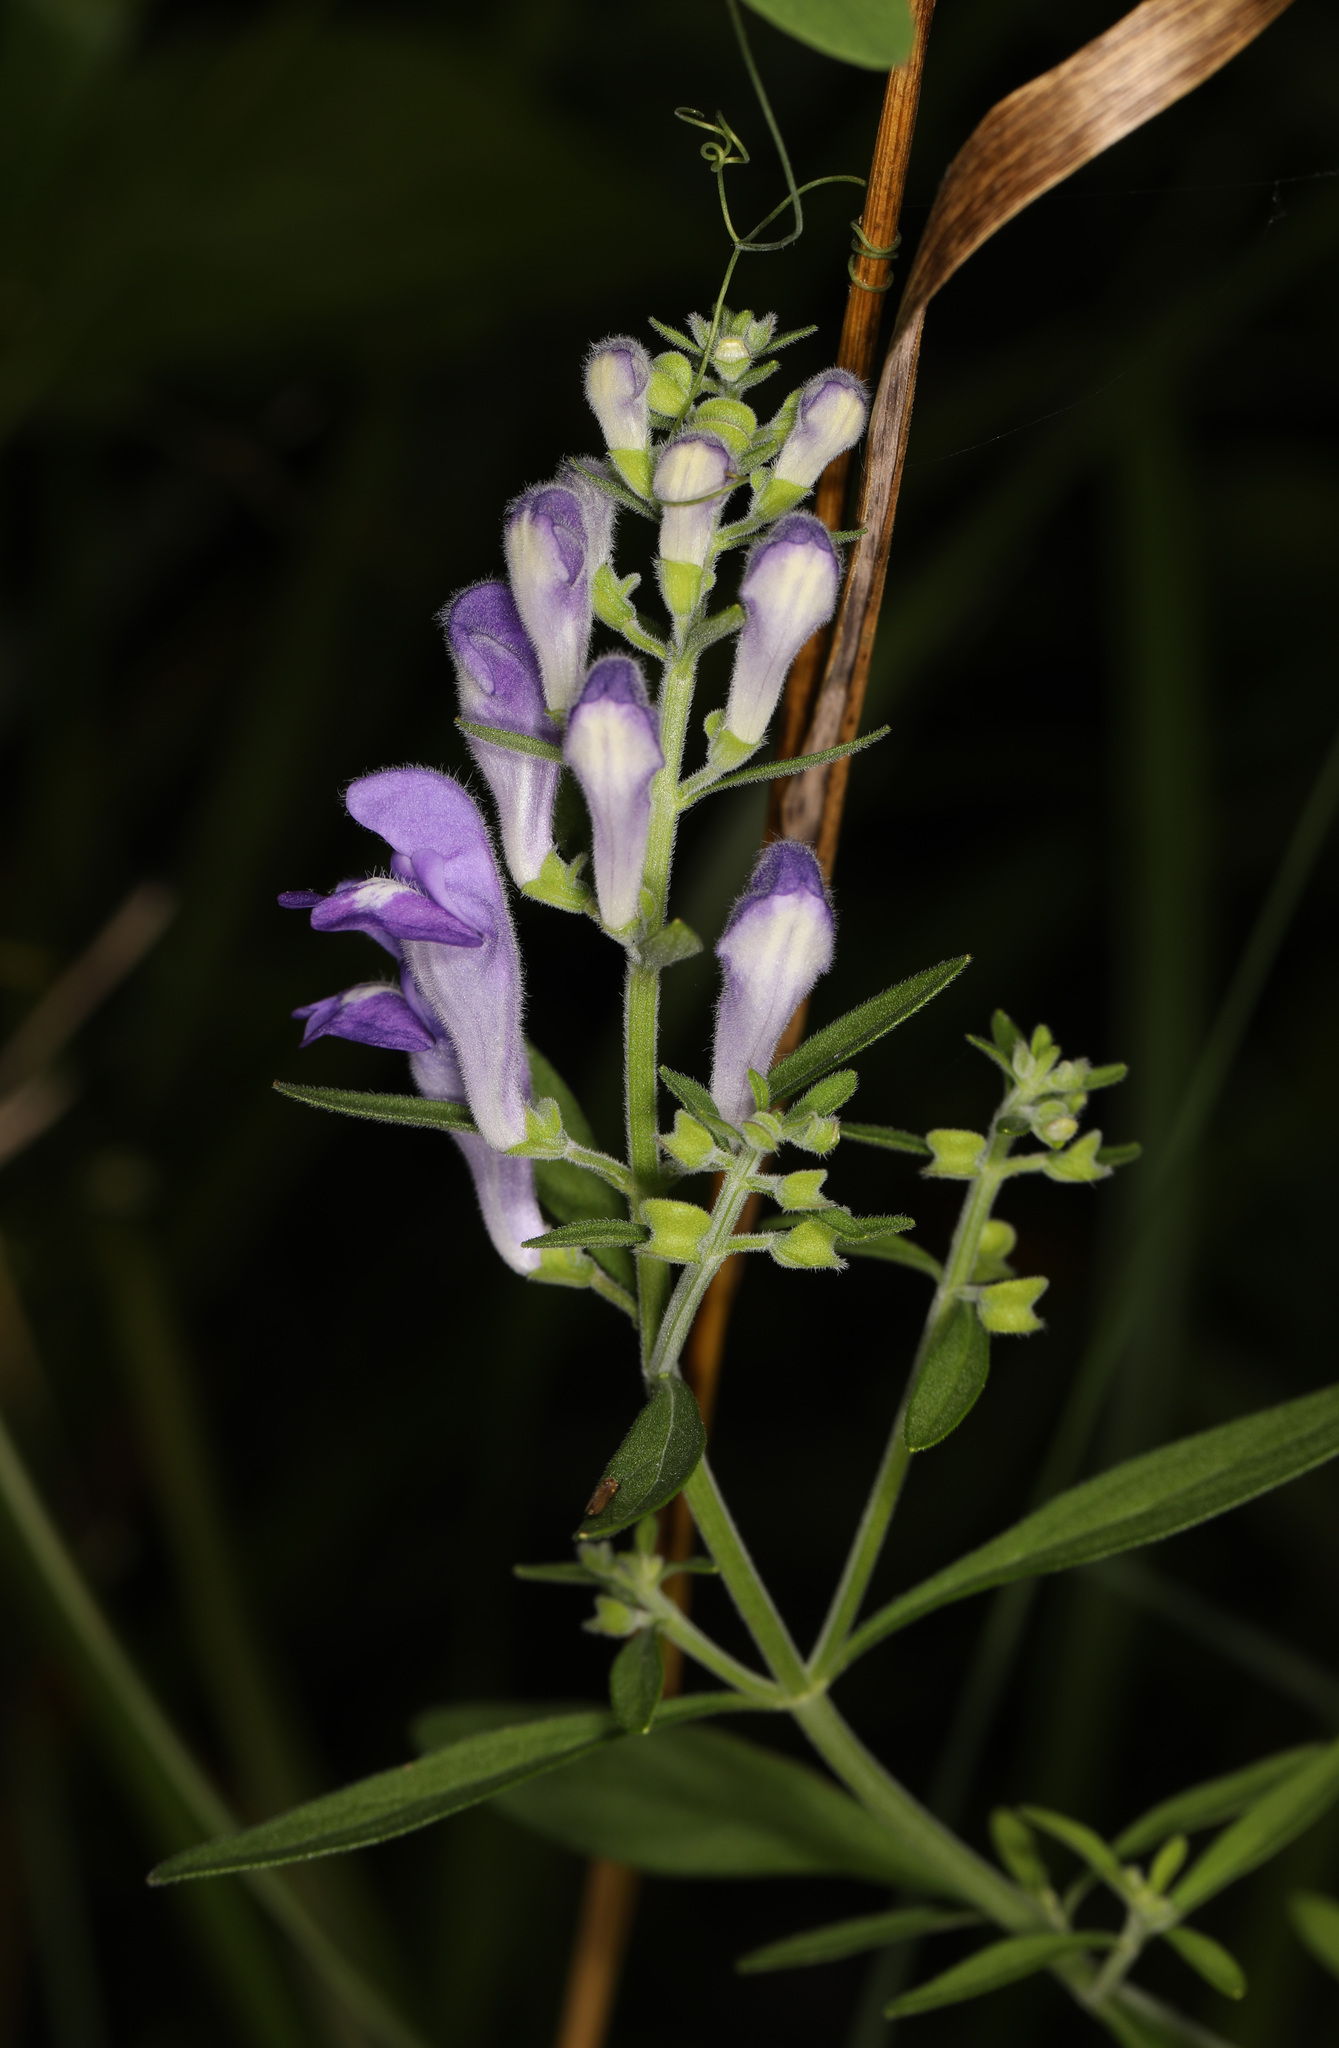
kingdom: Plantae
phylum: Tracheophyta
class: Magnoliopsida
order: Lamiales
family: Lamiaceae
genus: Scutellaria
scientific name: Scutellaria integrifolia
